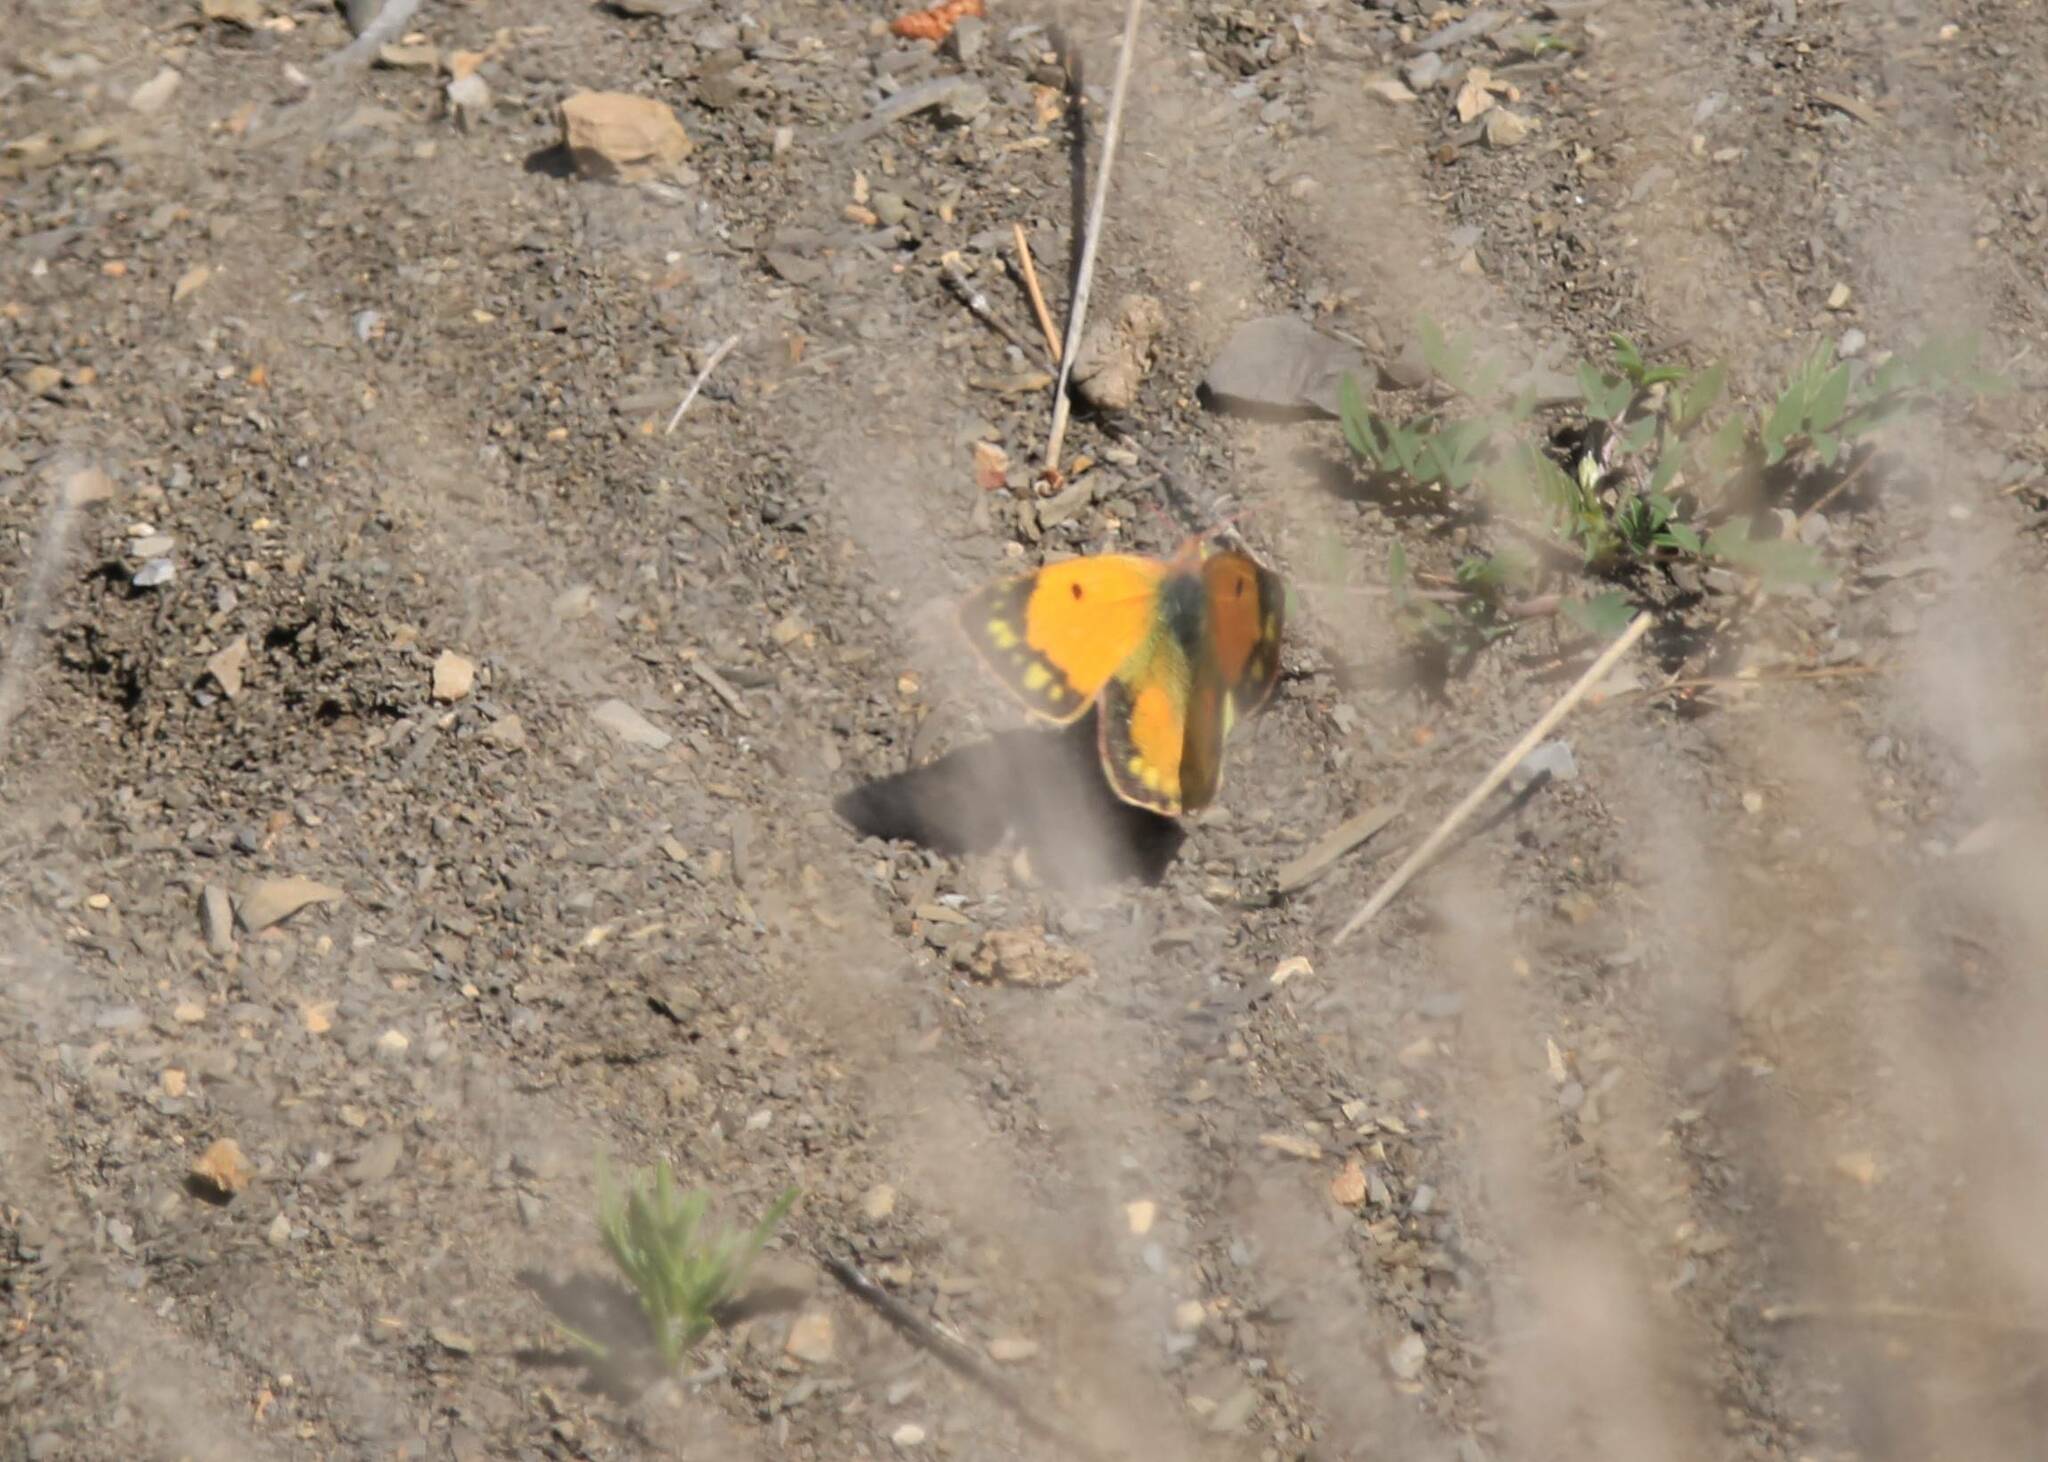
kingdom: Animalia
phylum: Arthropoda
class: Insecta
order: Lepidoptera
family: Pieridae
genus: Colias
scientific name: Colias croceus
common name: Clouded yellow
